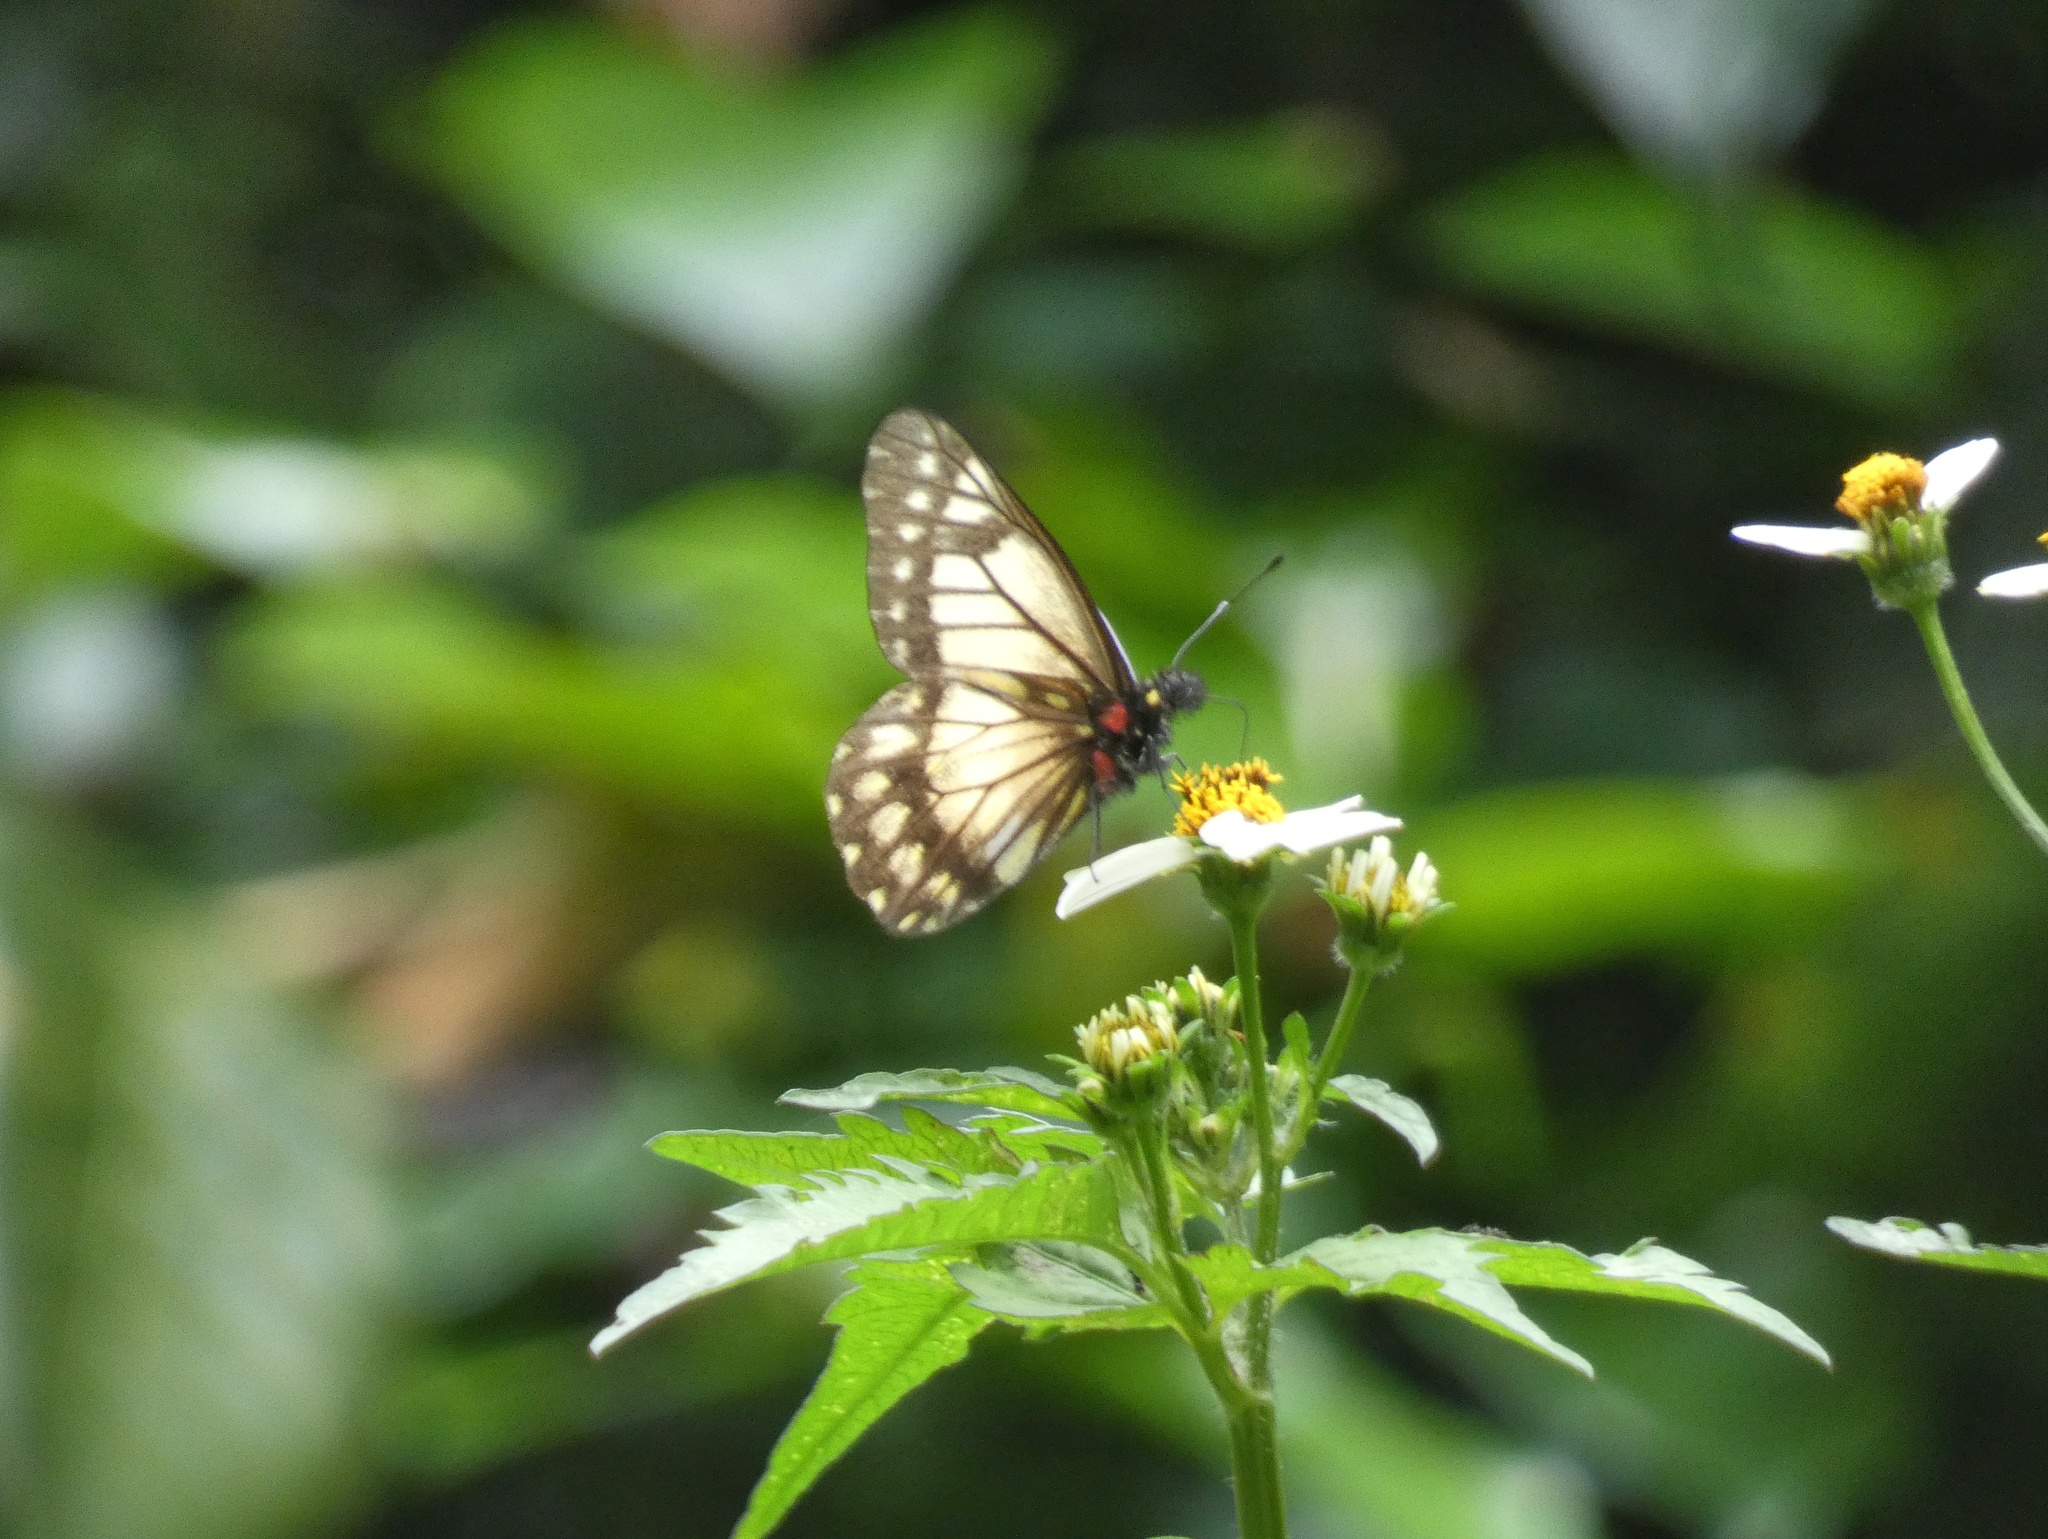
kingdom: Animalia
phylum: Arthropoda
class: Insecta
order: Lepidoptera
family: Pieridae
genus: Archonias
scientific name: Archonias nimbice
